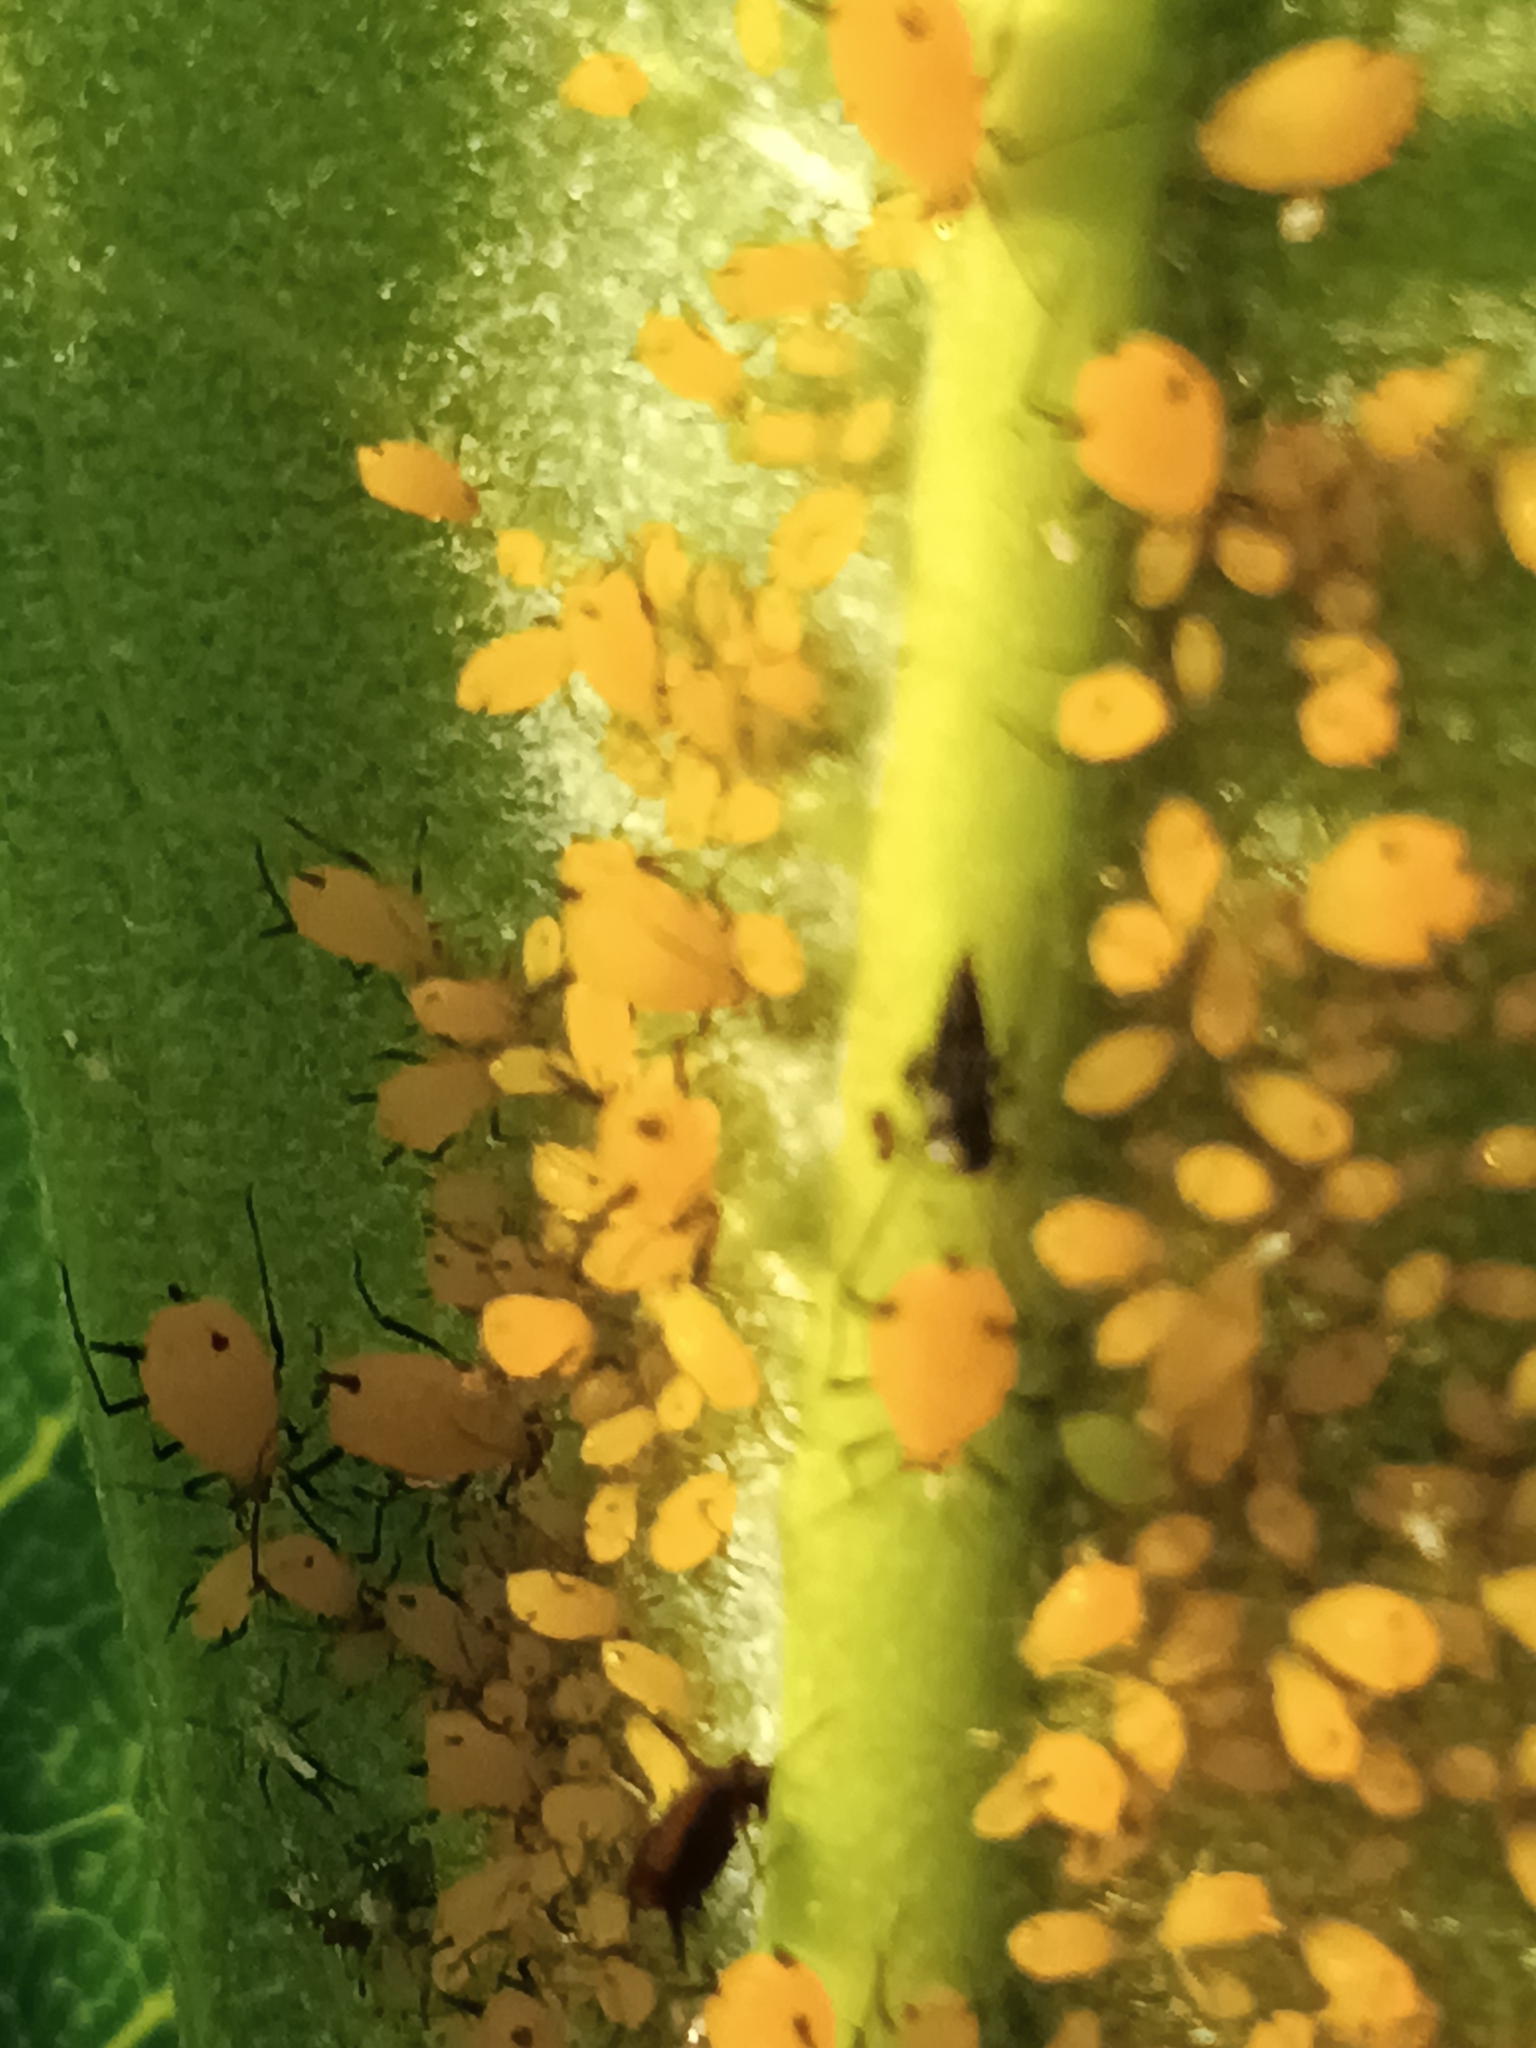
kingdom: Animalia
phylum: Arthropoda
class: Insecta
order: Hemiptera
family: Aphididae
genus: Aphis
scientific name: Aphis nerii
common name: Oleander aphid
